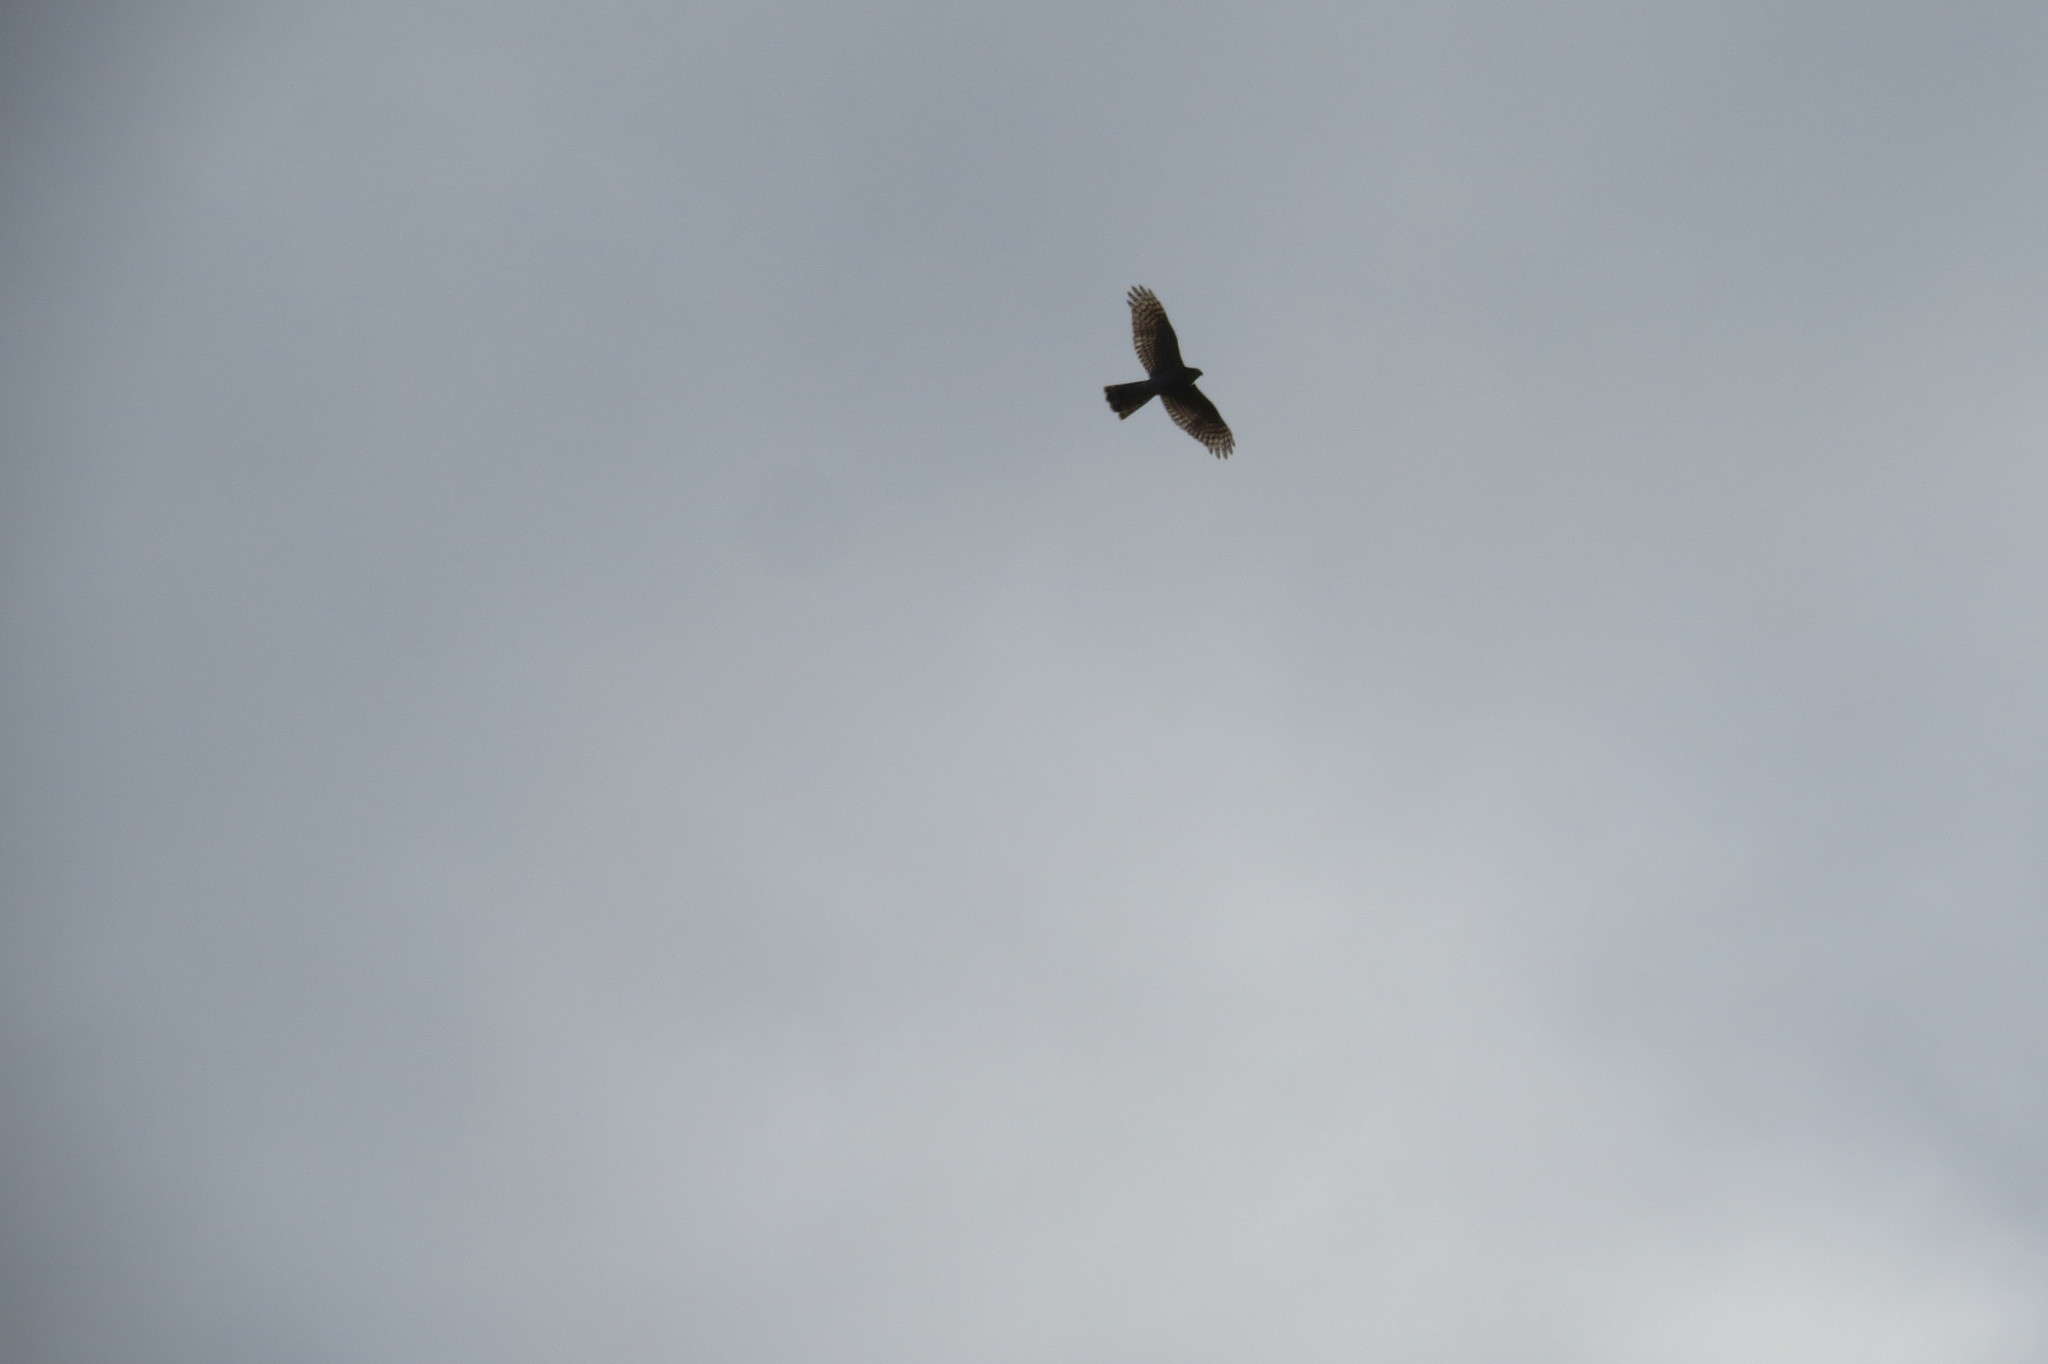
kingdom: Animalia
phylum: Chordata
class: Aves
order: Accipitriformes
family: Accipitridae
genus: Accipiter
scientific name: Accipiter nisus
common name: Eurasian sparrowhawk
